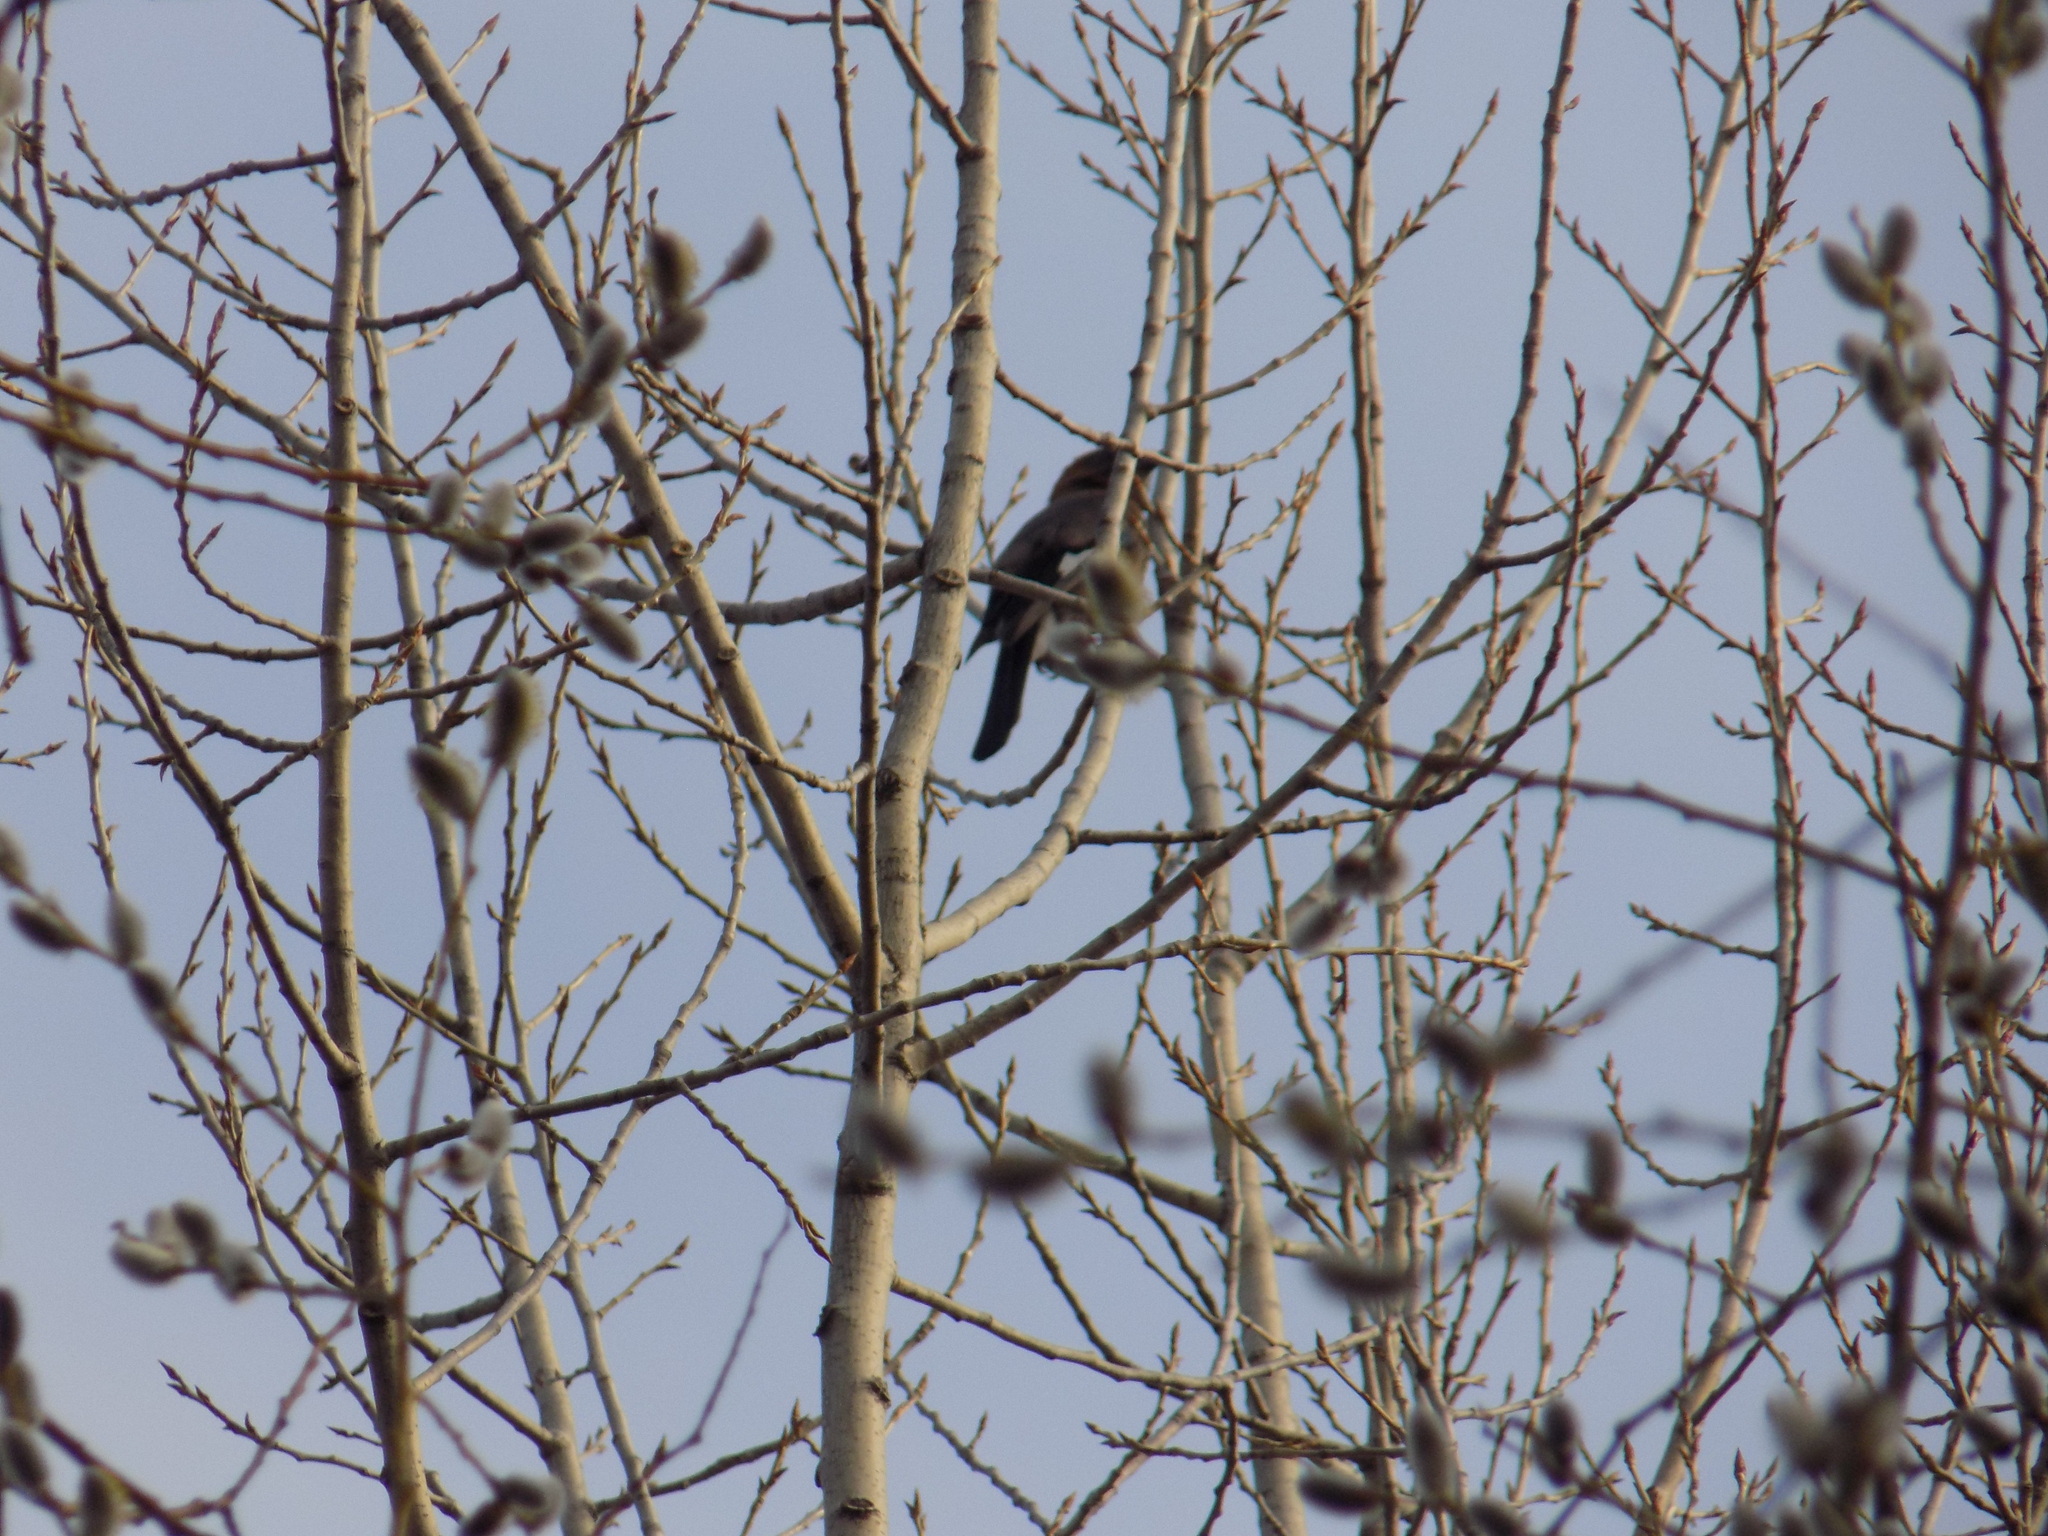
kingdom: Animalia
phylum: Chordata
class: Aves
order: Passeriformes
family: Corvidae
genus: Garrulus
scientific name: Garrulus glandarius
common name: Eurasian jay
